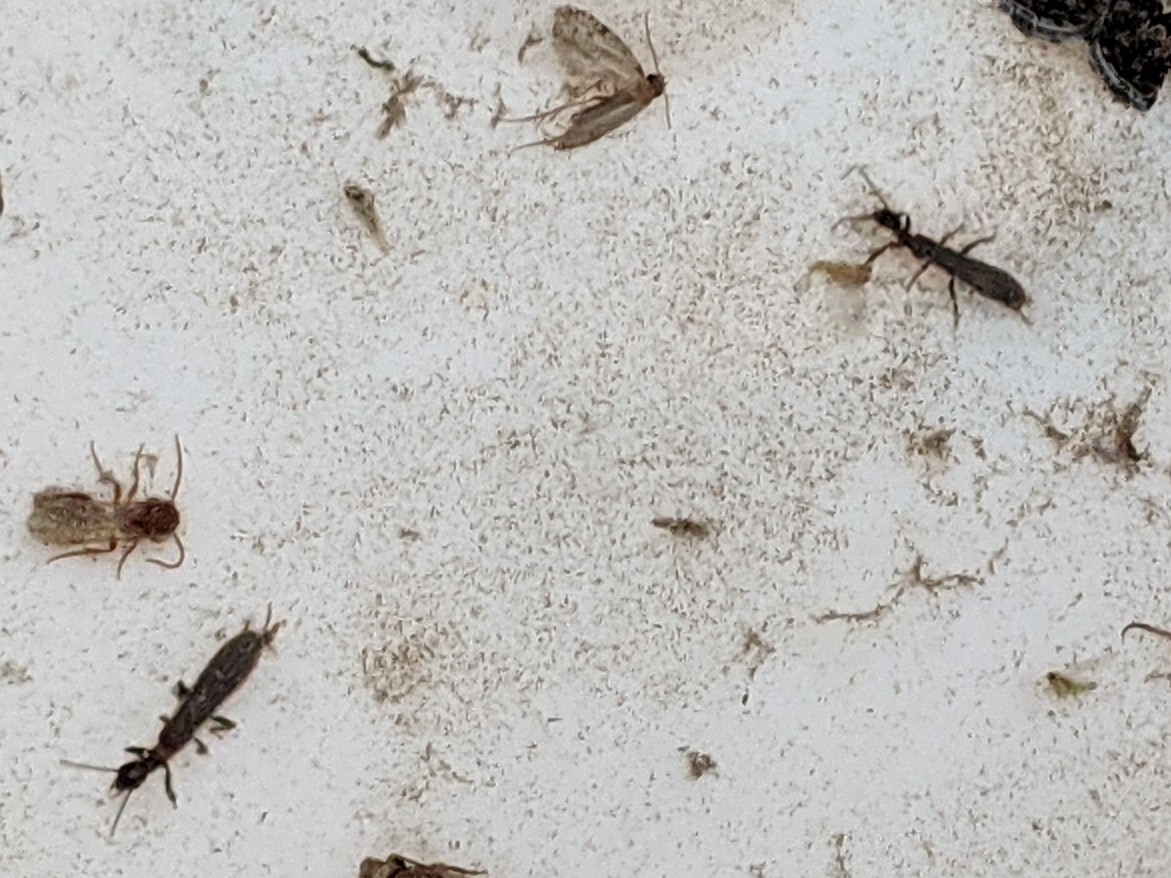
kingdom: Animalia
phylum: Arthropoda
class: Insecta
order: Embioptera
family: Oligotomidae
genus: Oligotoma
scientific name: Oligotoma nigra
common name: Black webspinner
